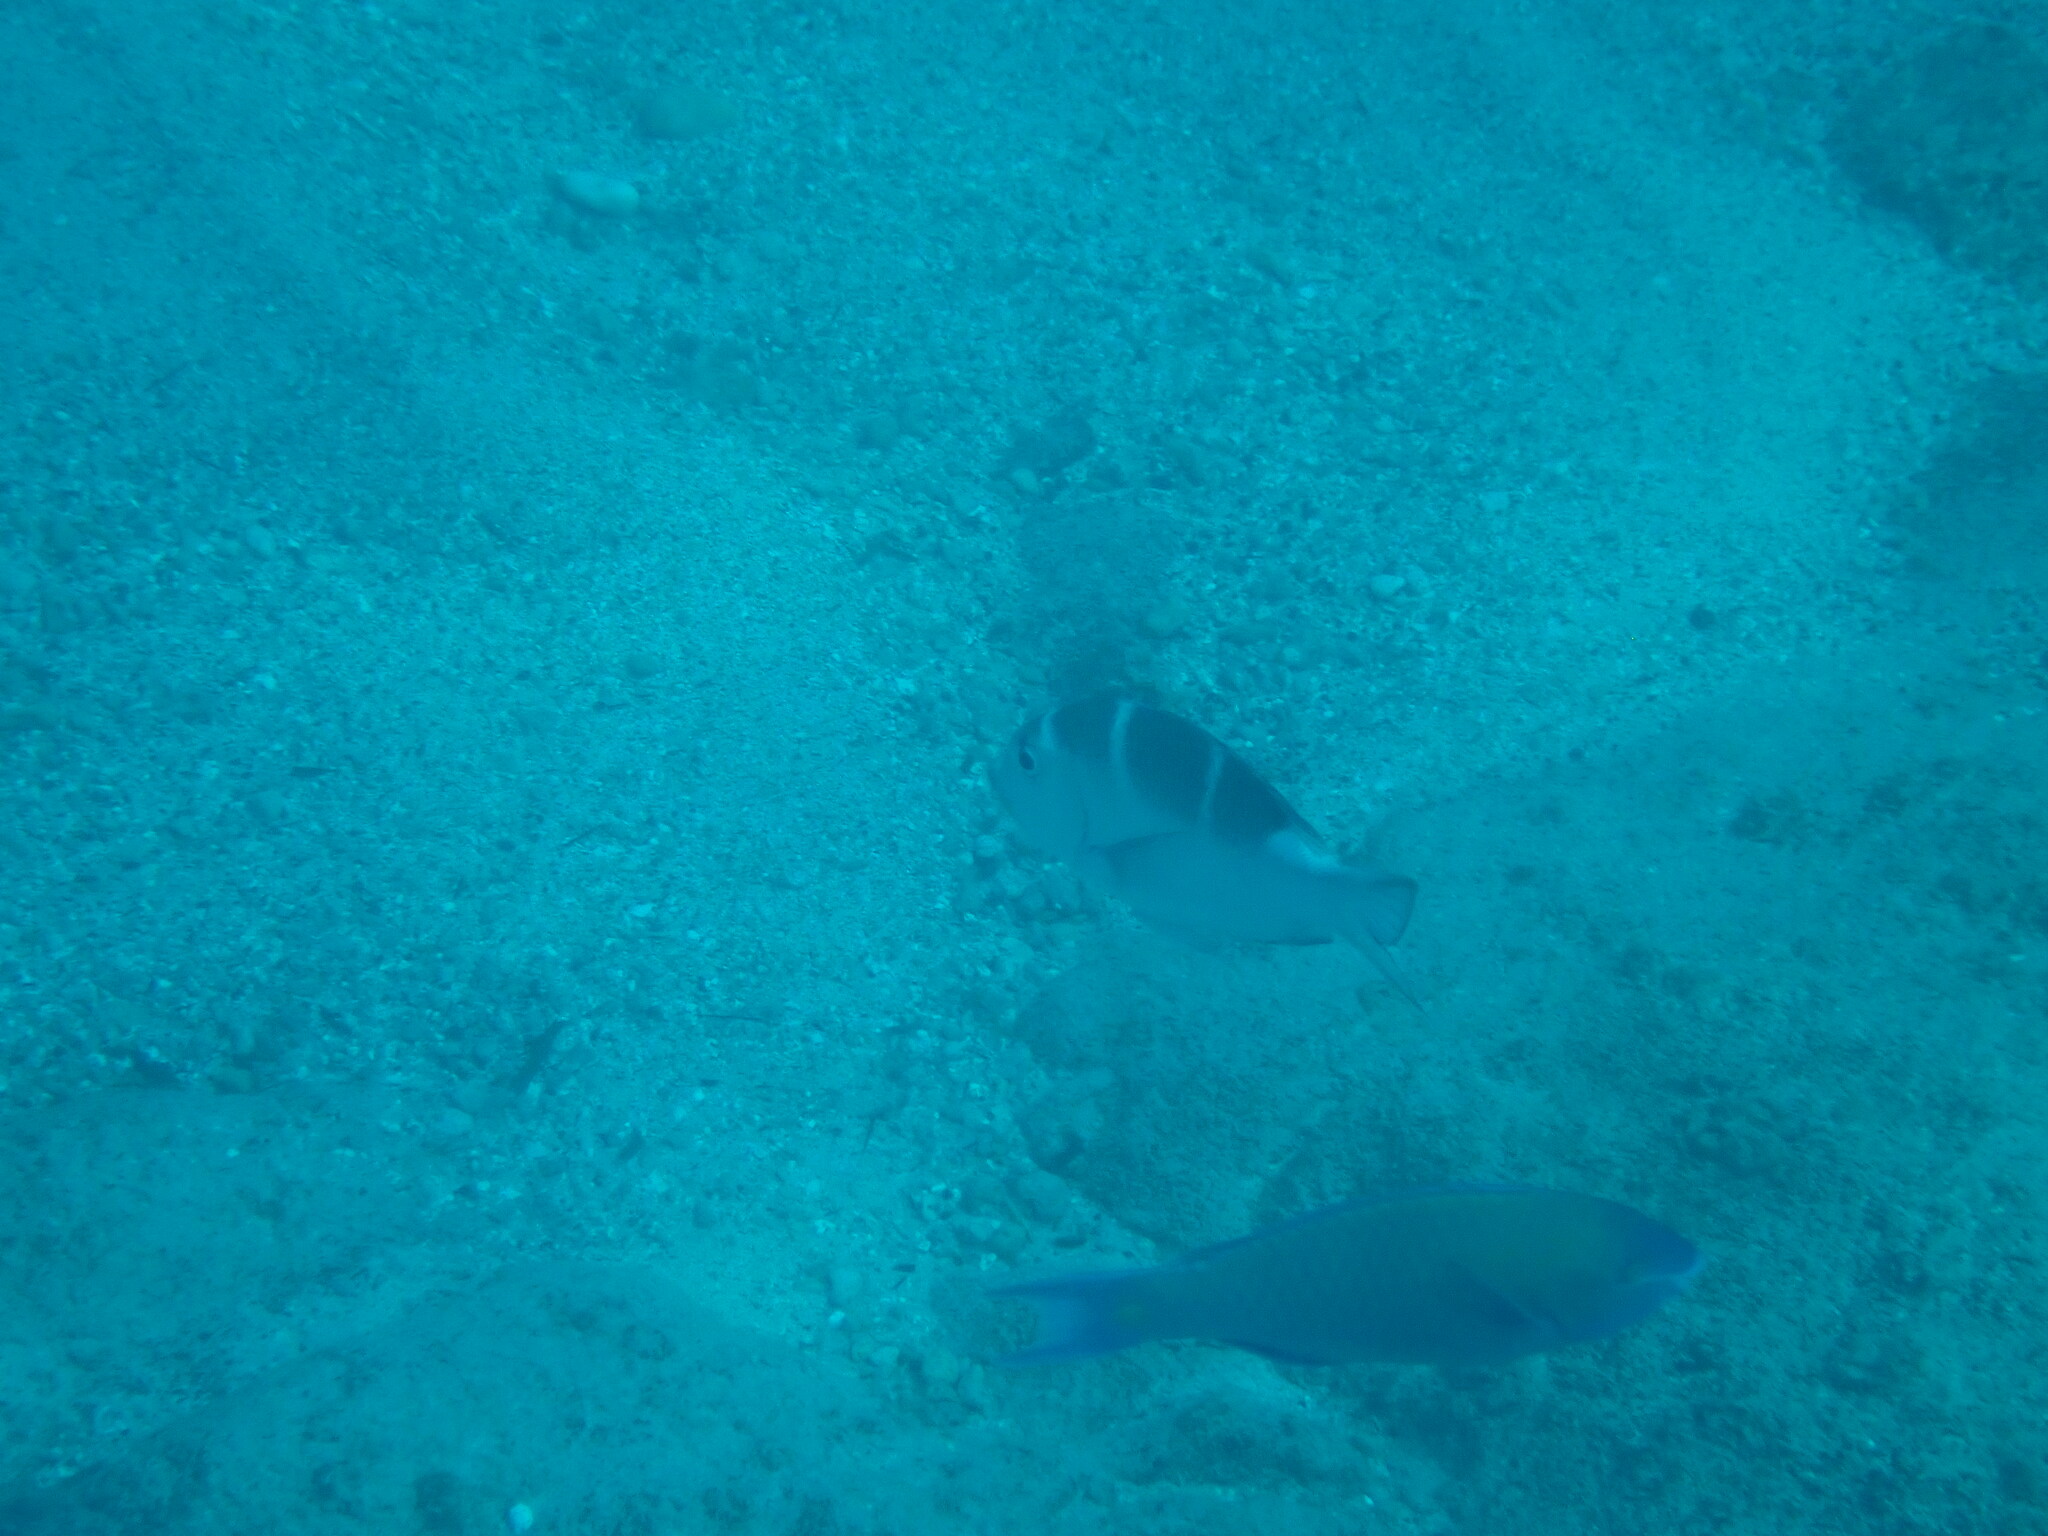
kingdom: Animalia
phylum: Chordata
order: Perciformes
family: Lethrinidae
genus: Monotaxis
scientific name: Monotaxis grandoculis
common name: Bigeye emperor
